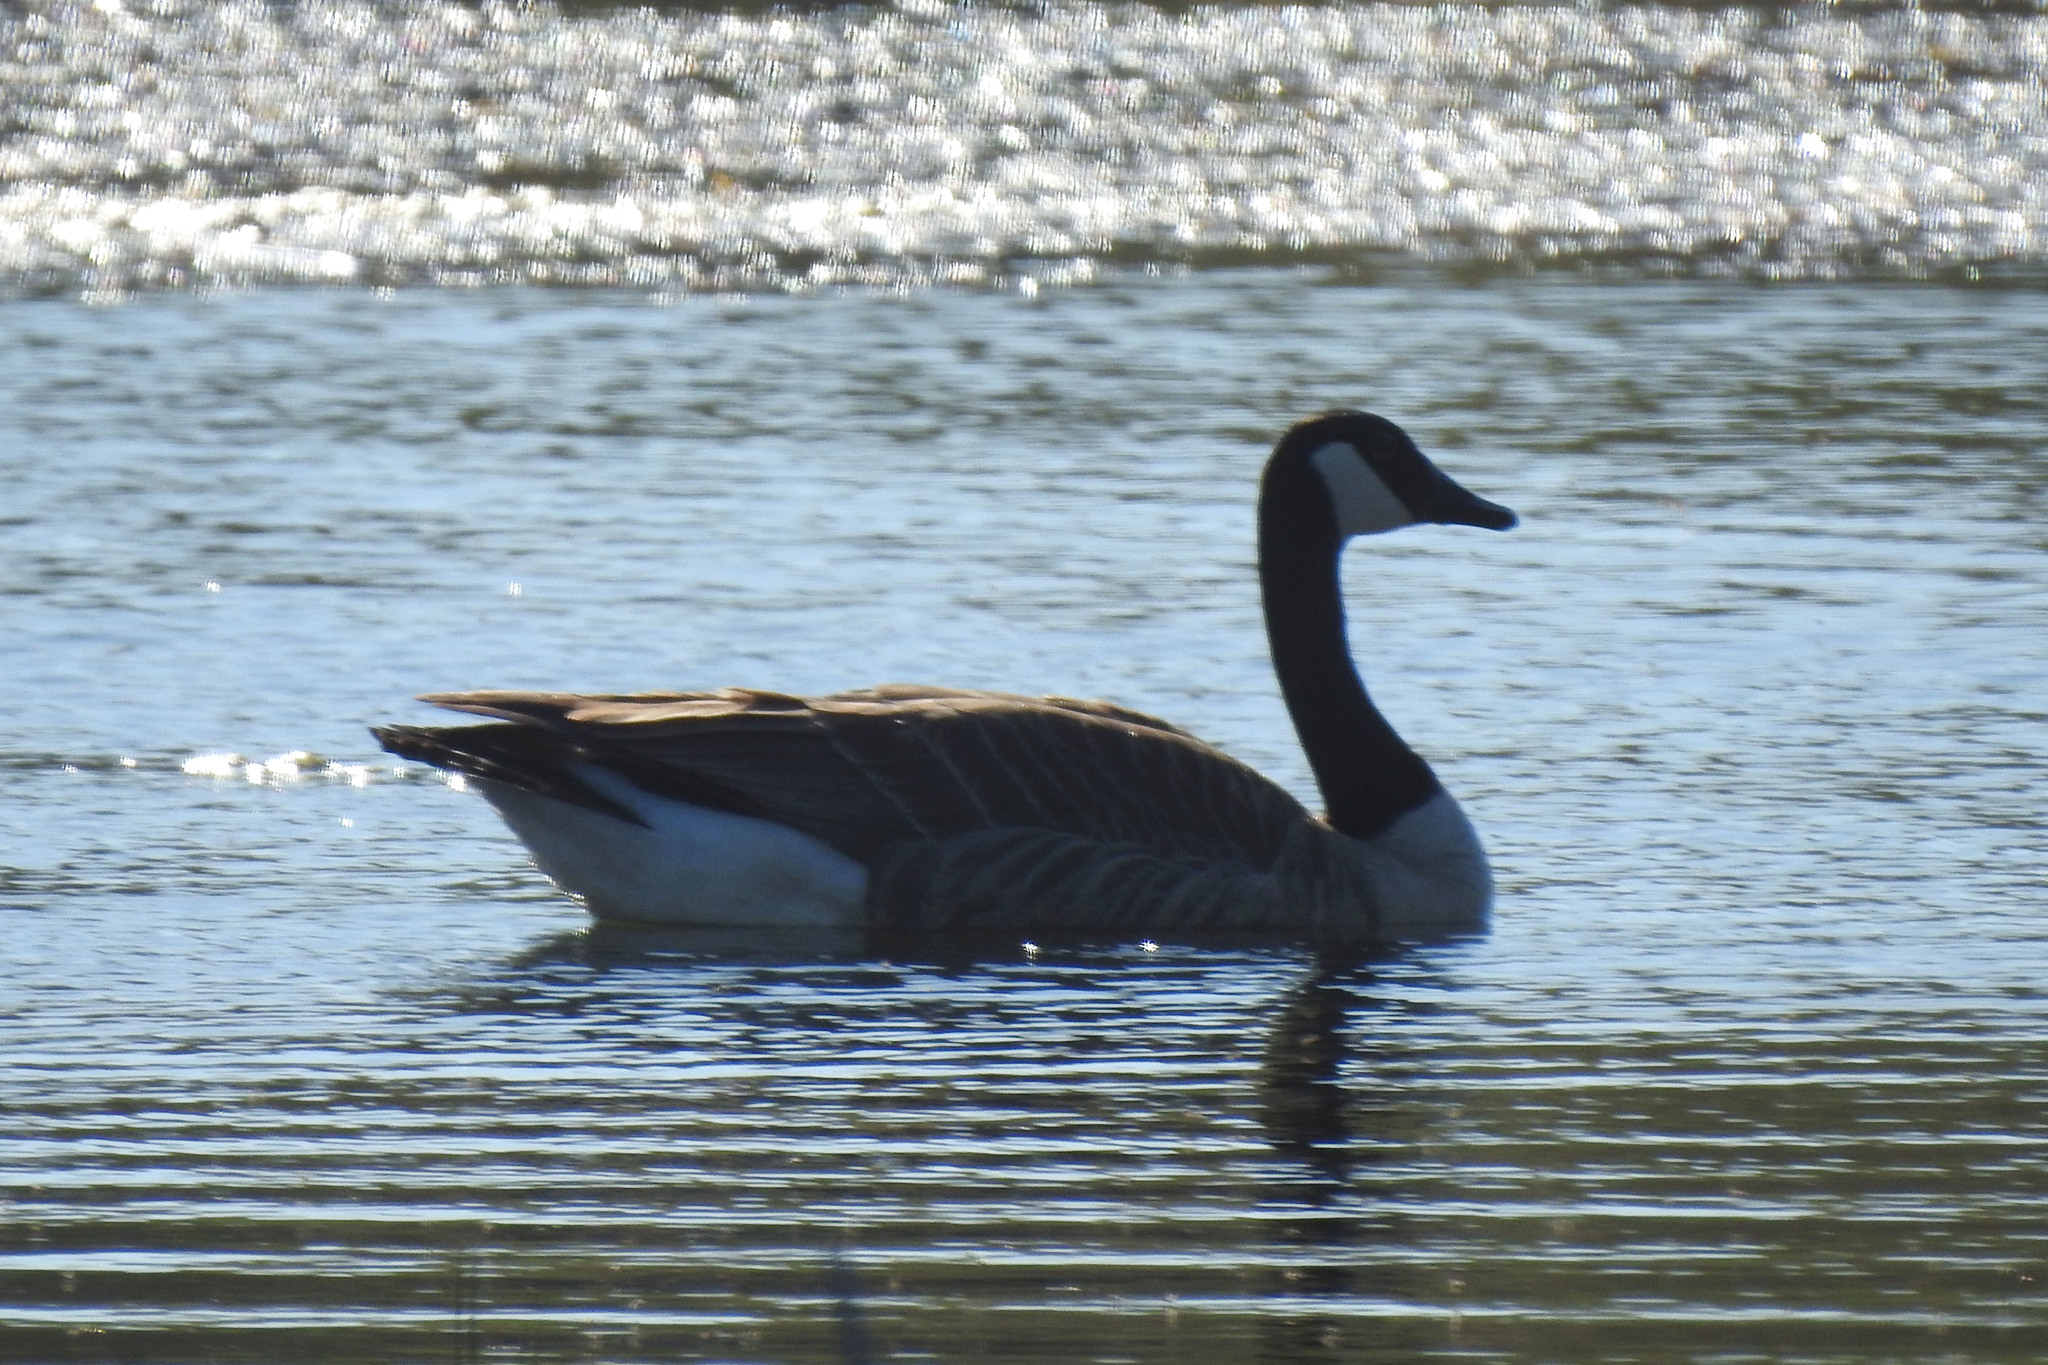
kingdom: Animalia
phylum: Chordata
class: Aves
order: Anseriformes
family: Anatidae
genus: Branta
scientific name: Branta canadensis
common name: Canada goose
